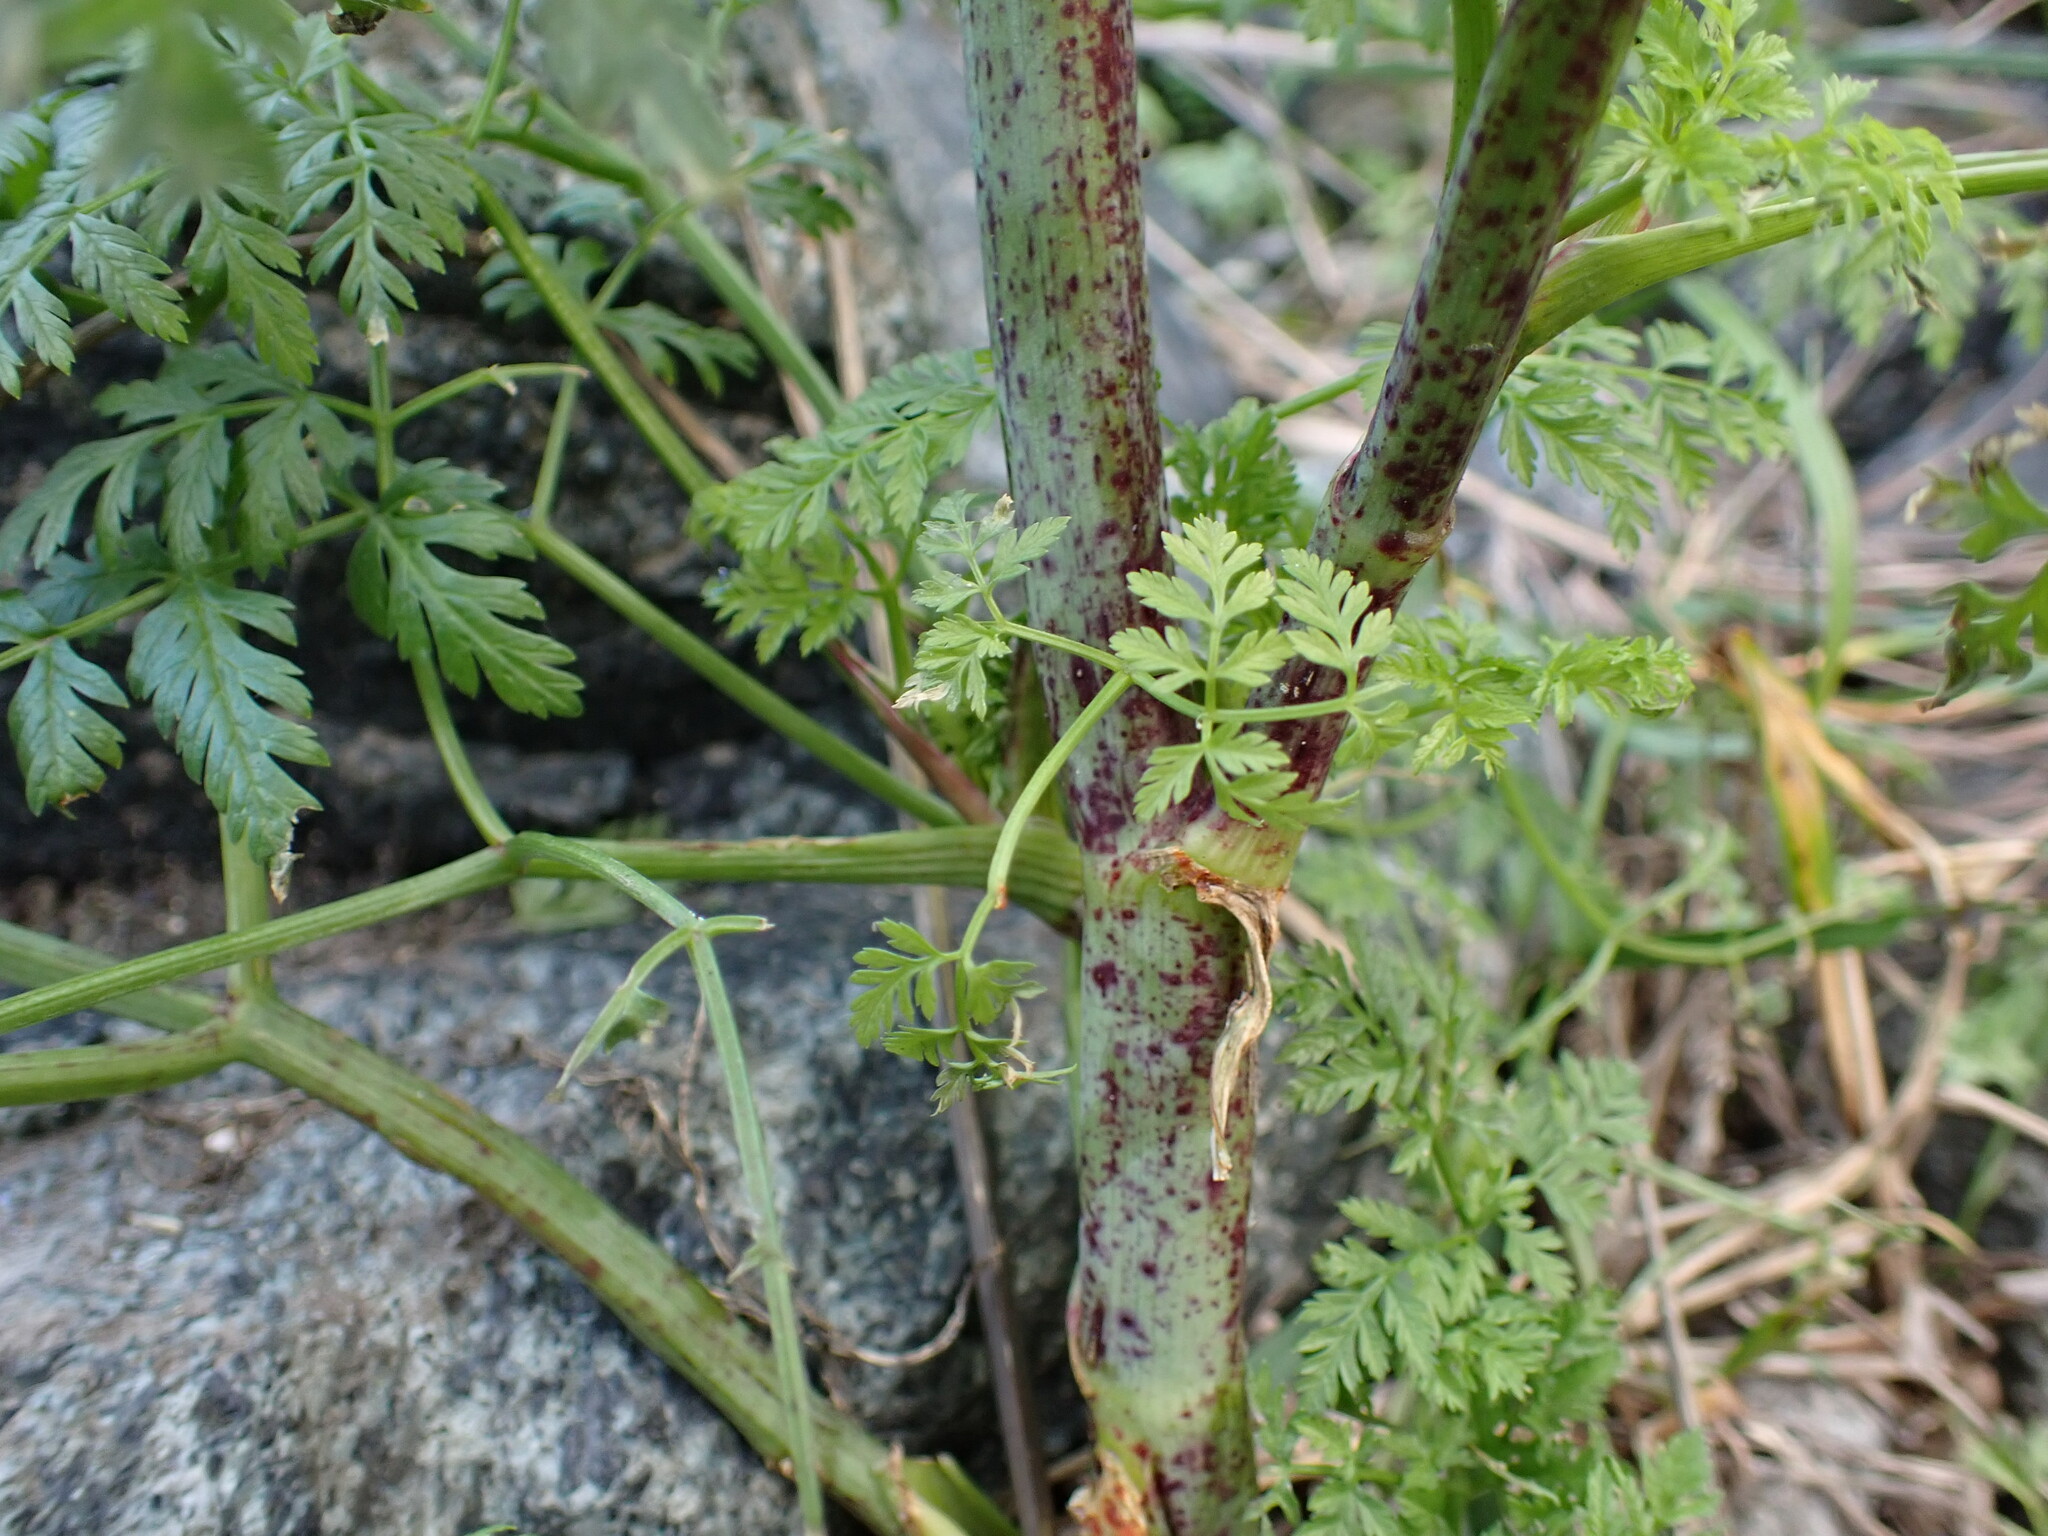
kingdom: Plantae
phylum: Tracheophyta
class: Magnoliopsida
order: Apiales
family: Apiaceae
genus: Conium
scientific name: Conium maculatum
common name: Hemlock
